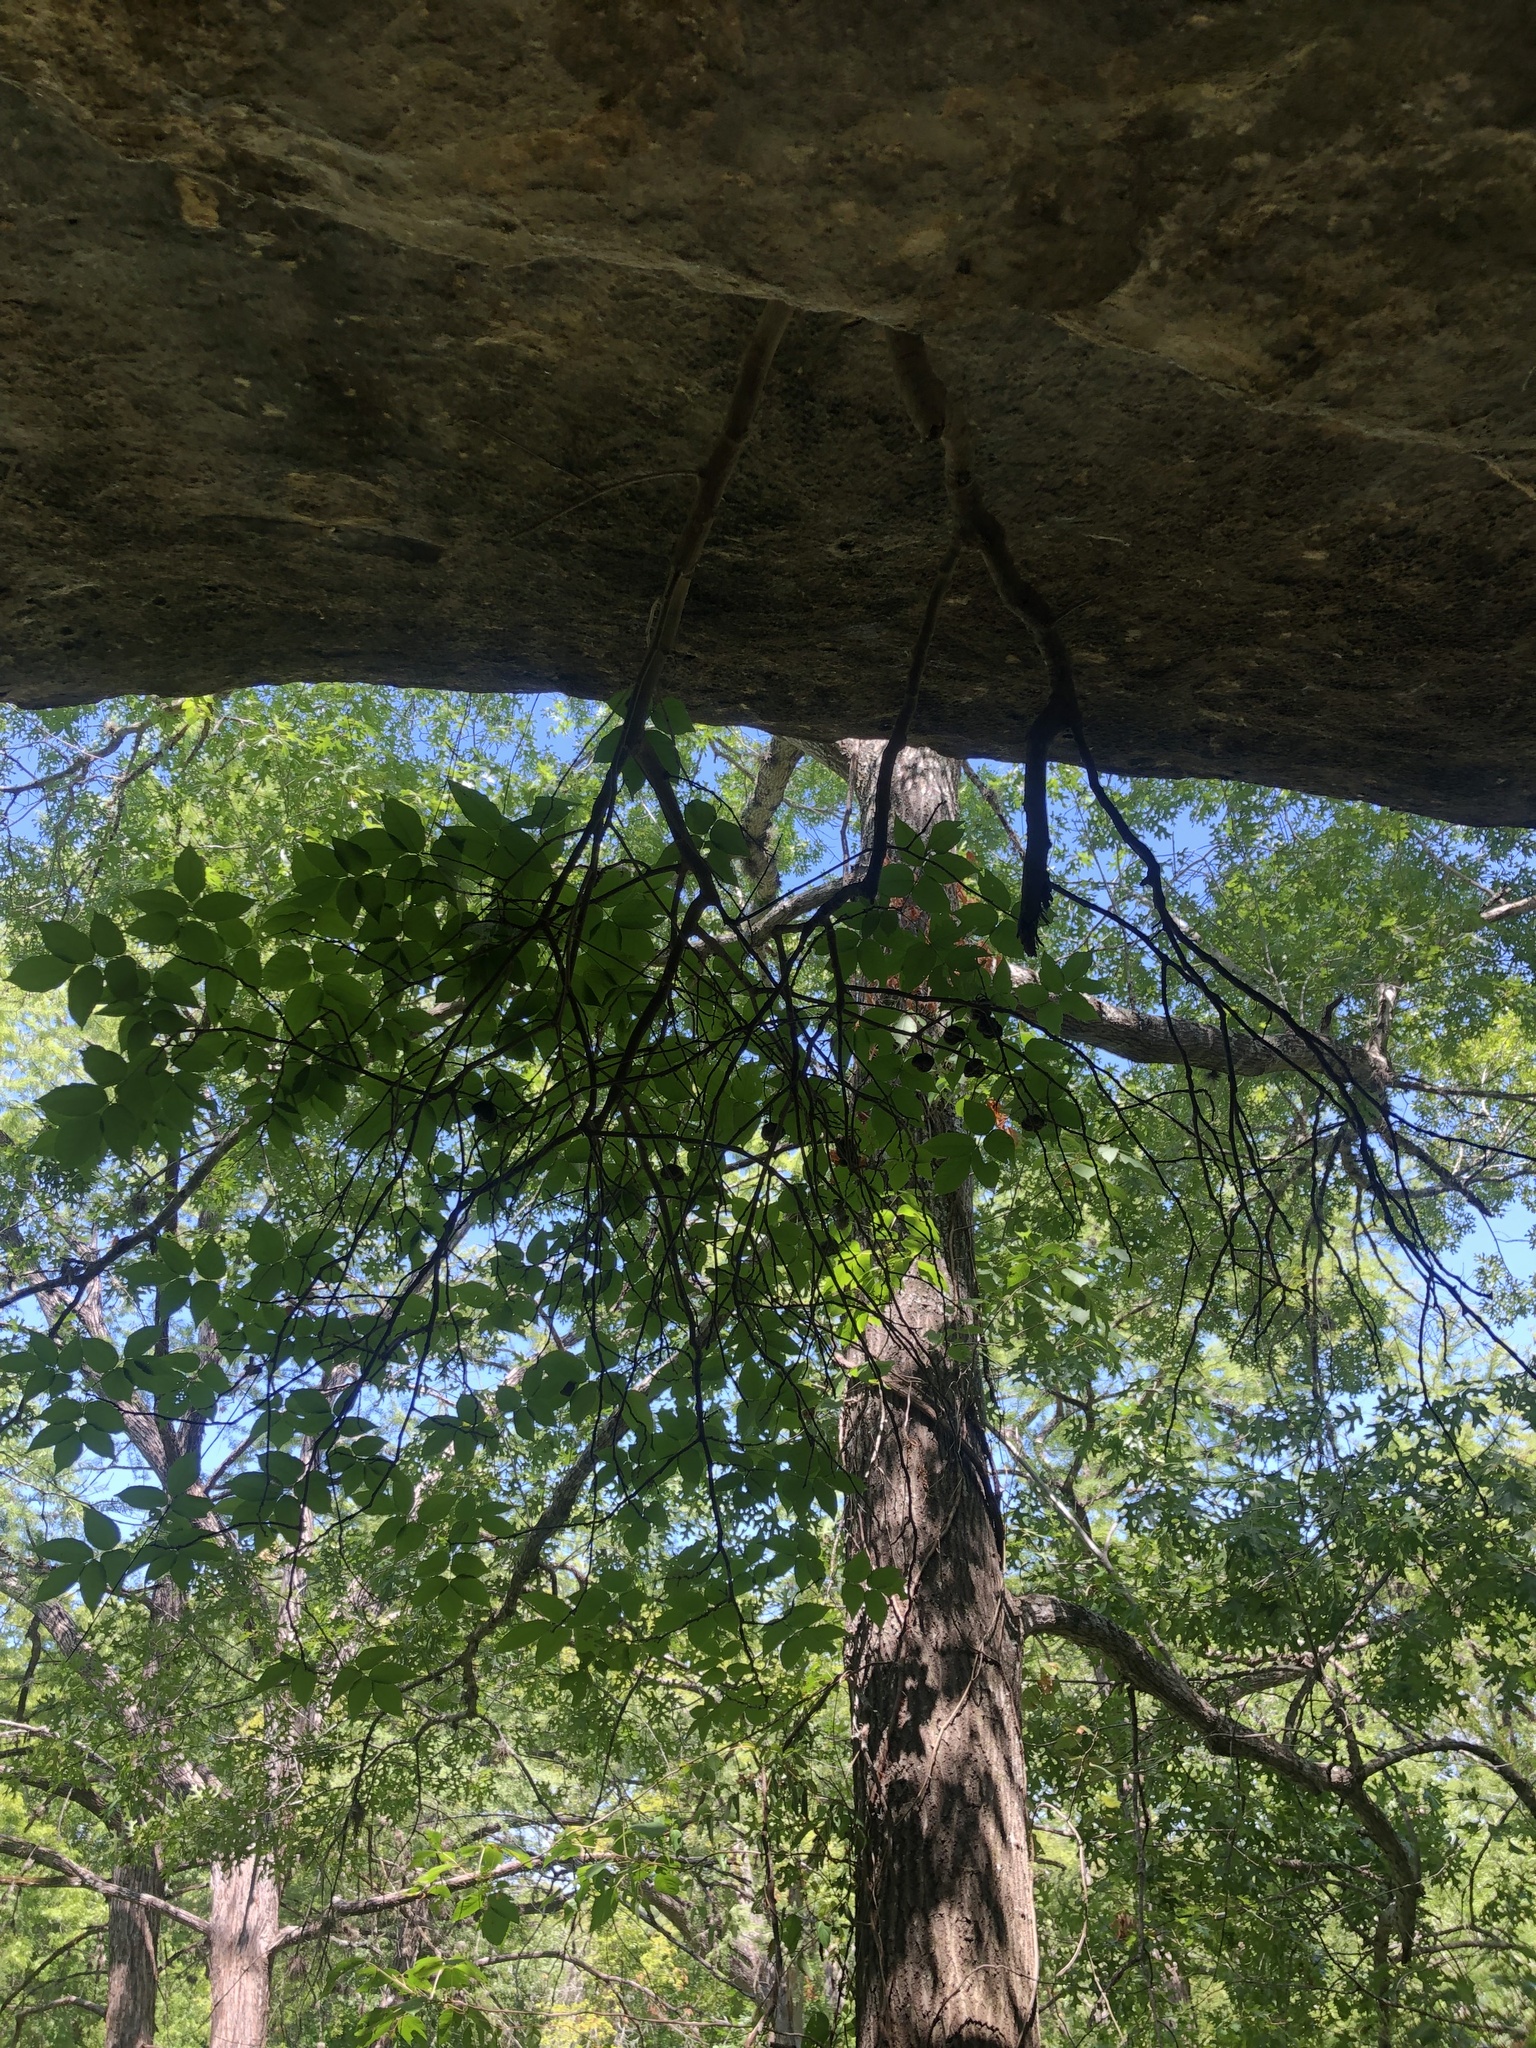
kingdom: Plantae
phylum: Tracheophyta
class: Magnoliopsida
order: Sapindales
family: Sapindaceae
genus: Ungnadia
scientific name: Ungnadia speciosa
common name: Texas-buckeye
